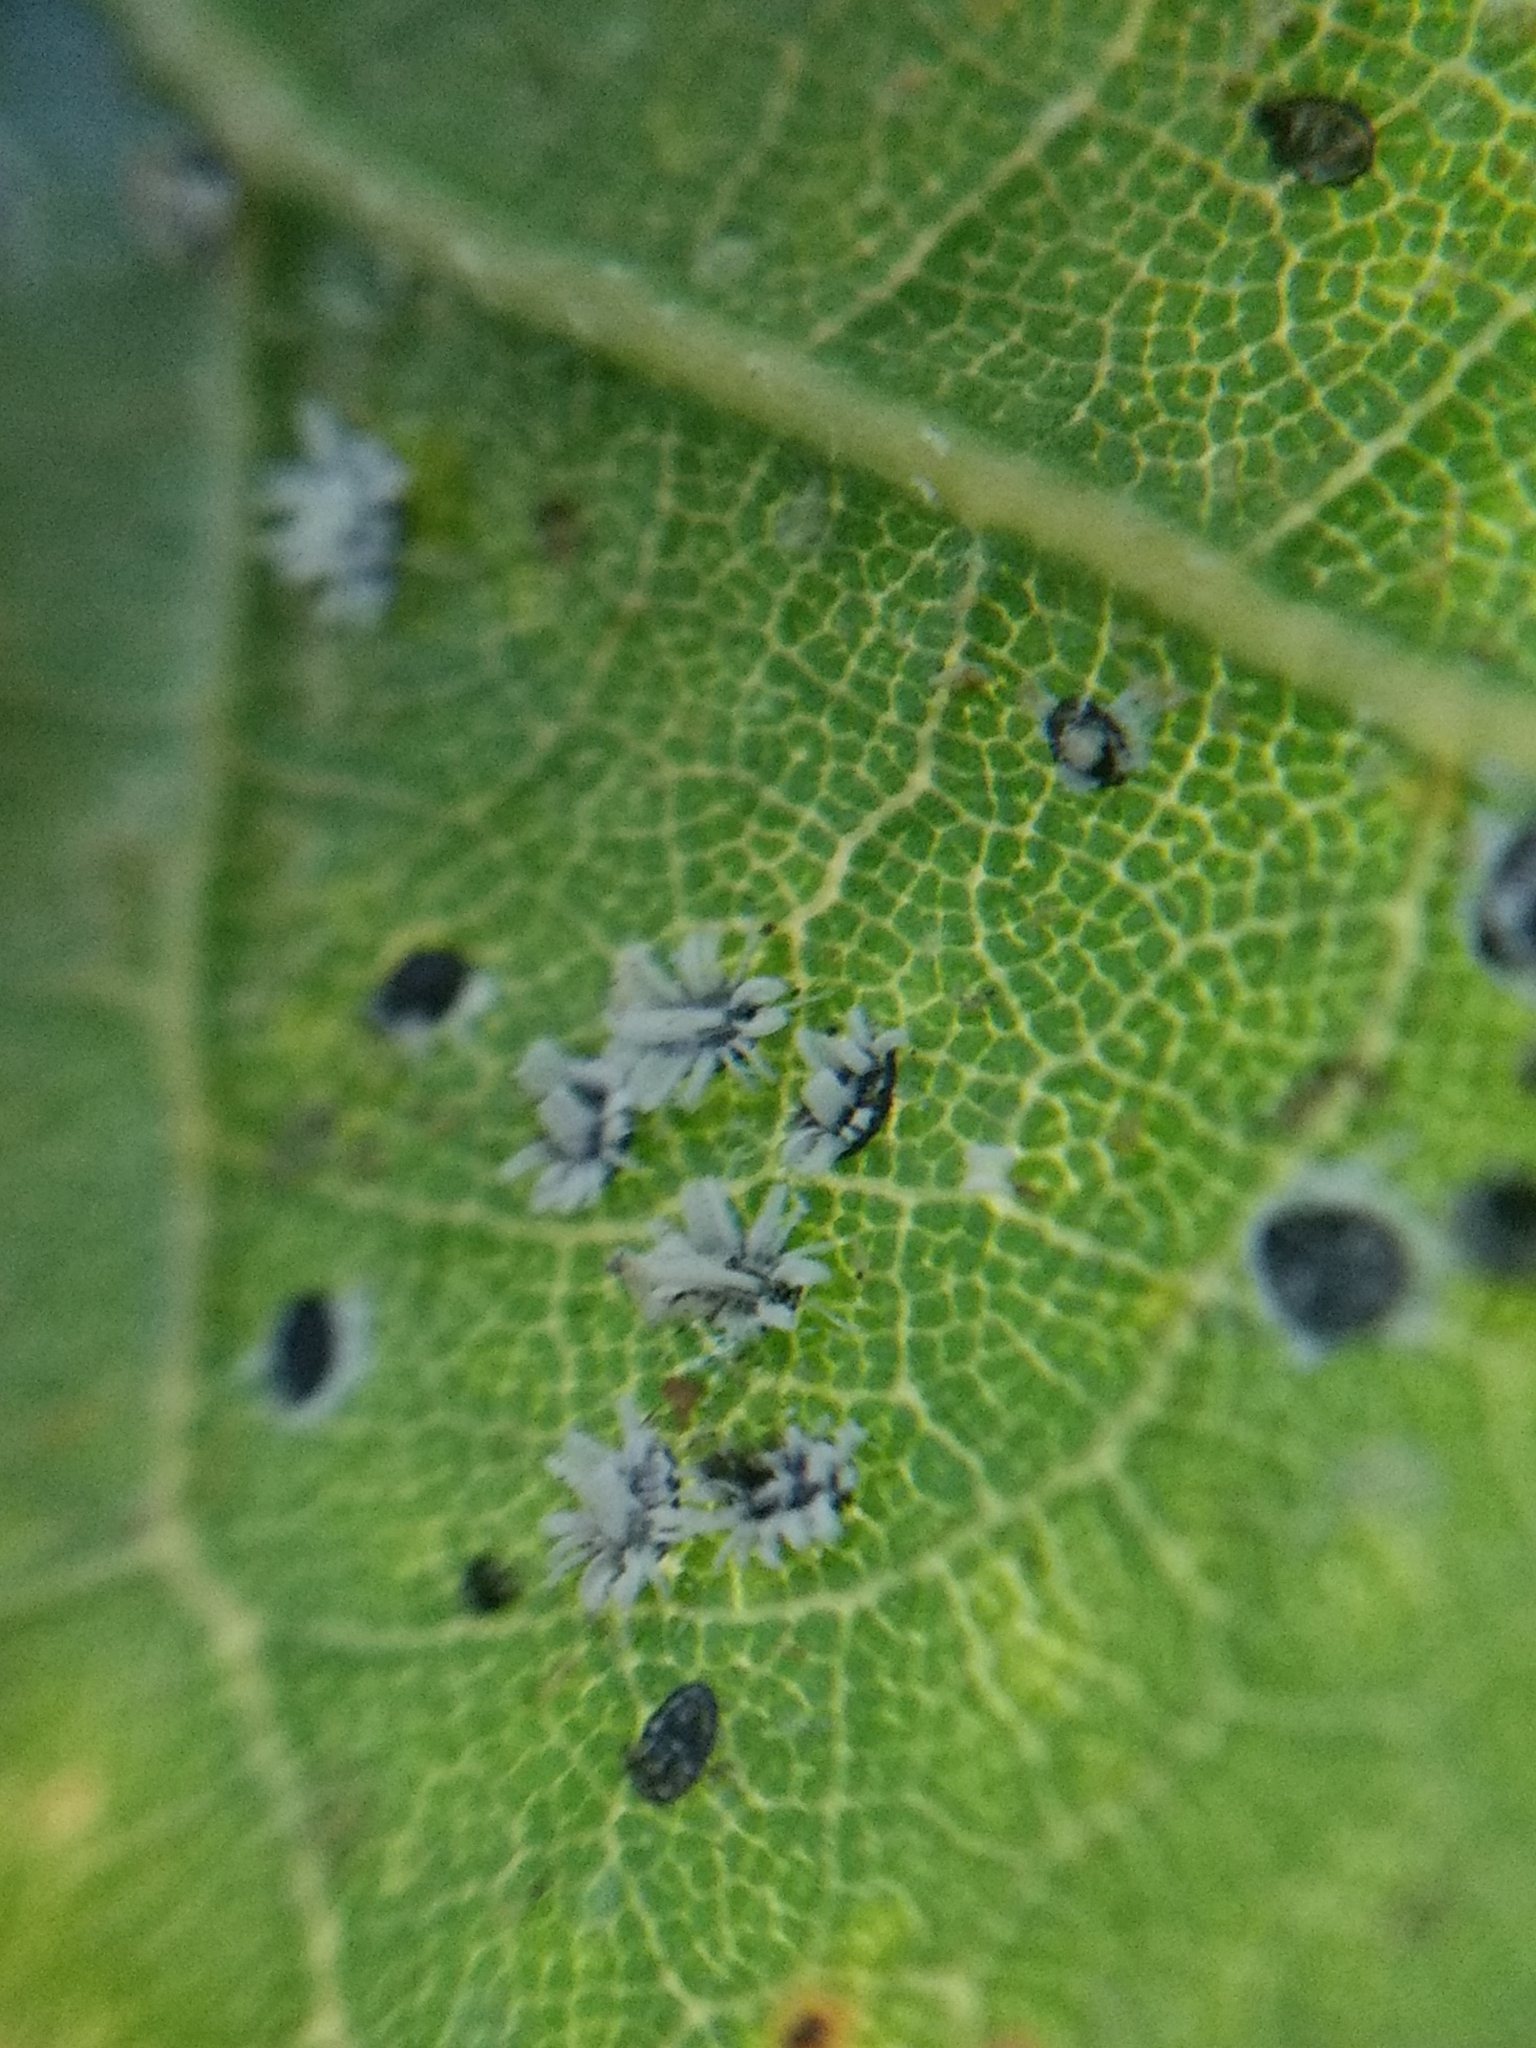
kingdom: Animalia
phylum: Arthropoda
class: Insecta
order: Hemiptera
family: Aleyrodidae
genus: Aleuroplatus
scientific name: Aleuroplatus coronata
